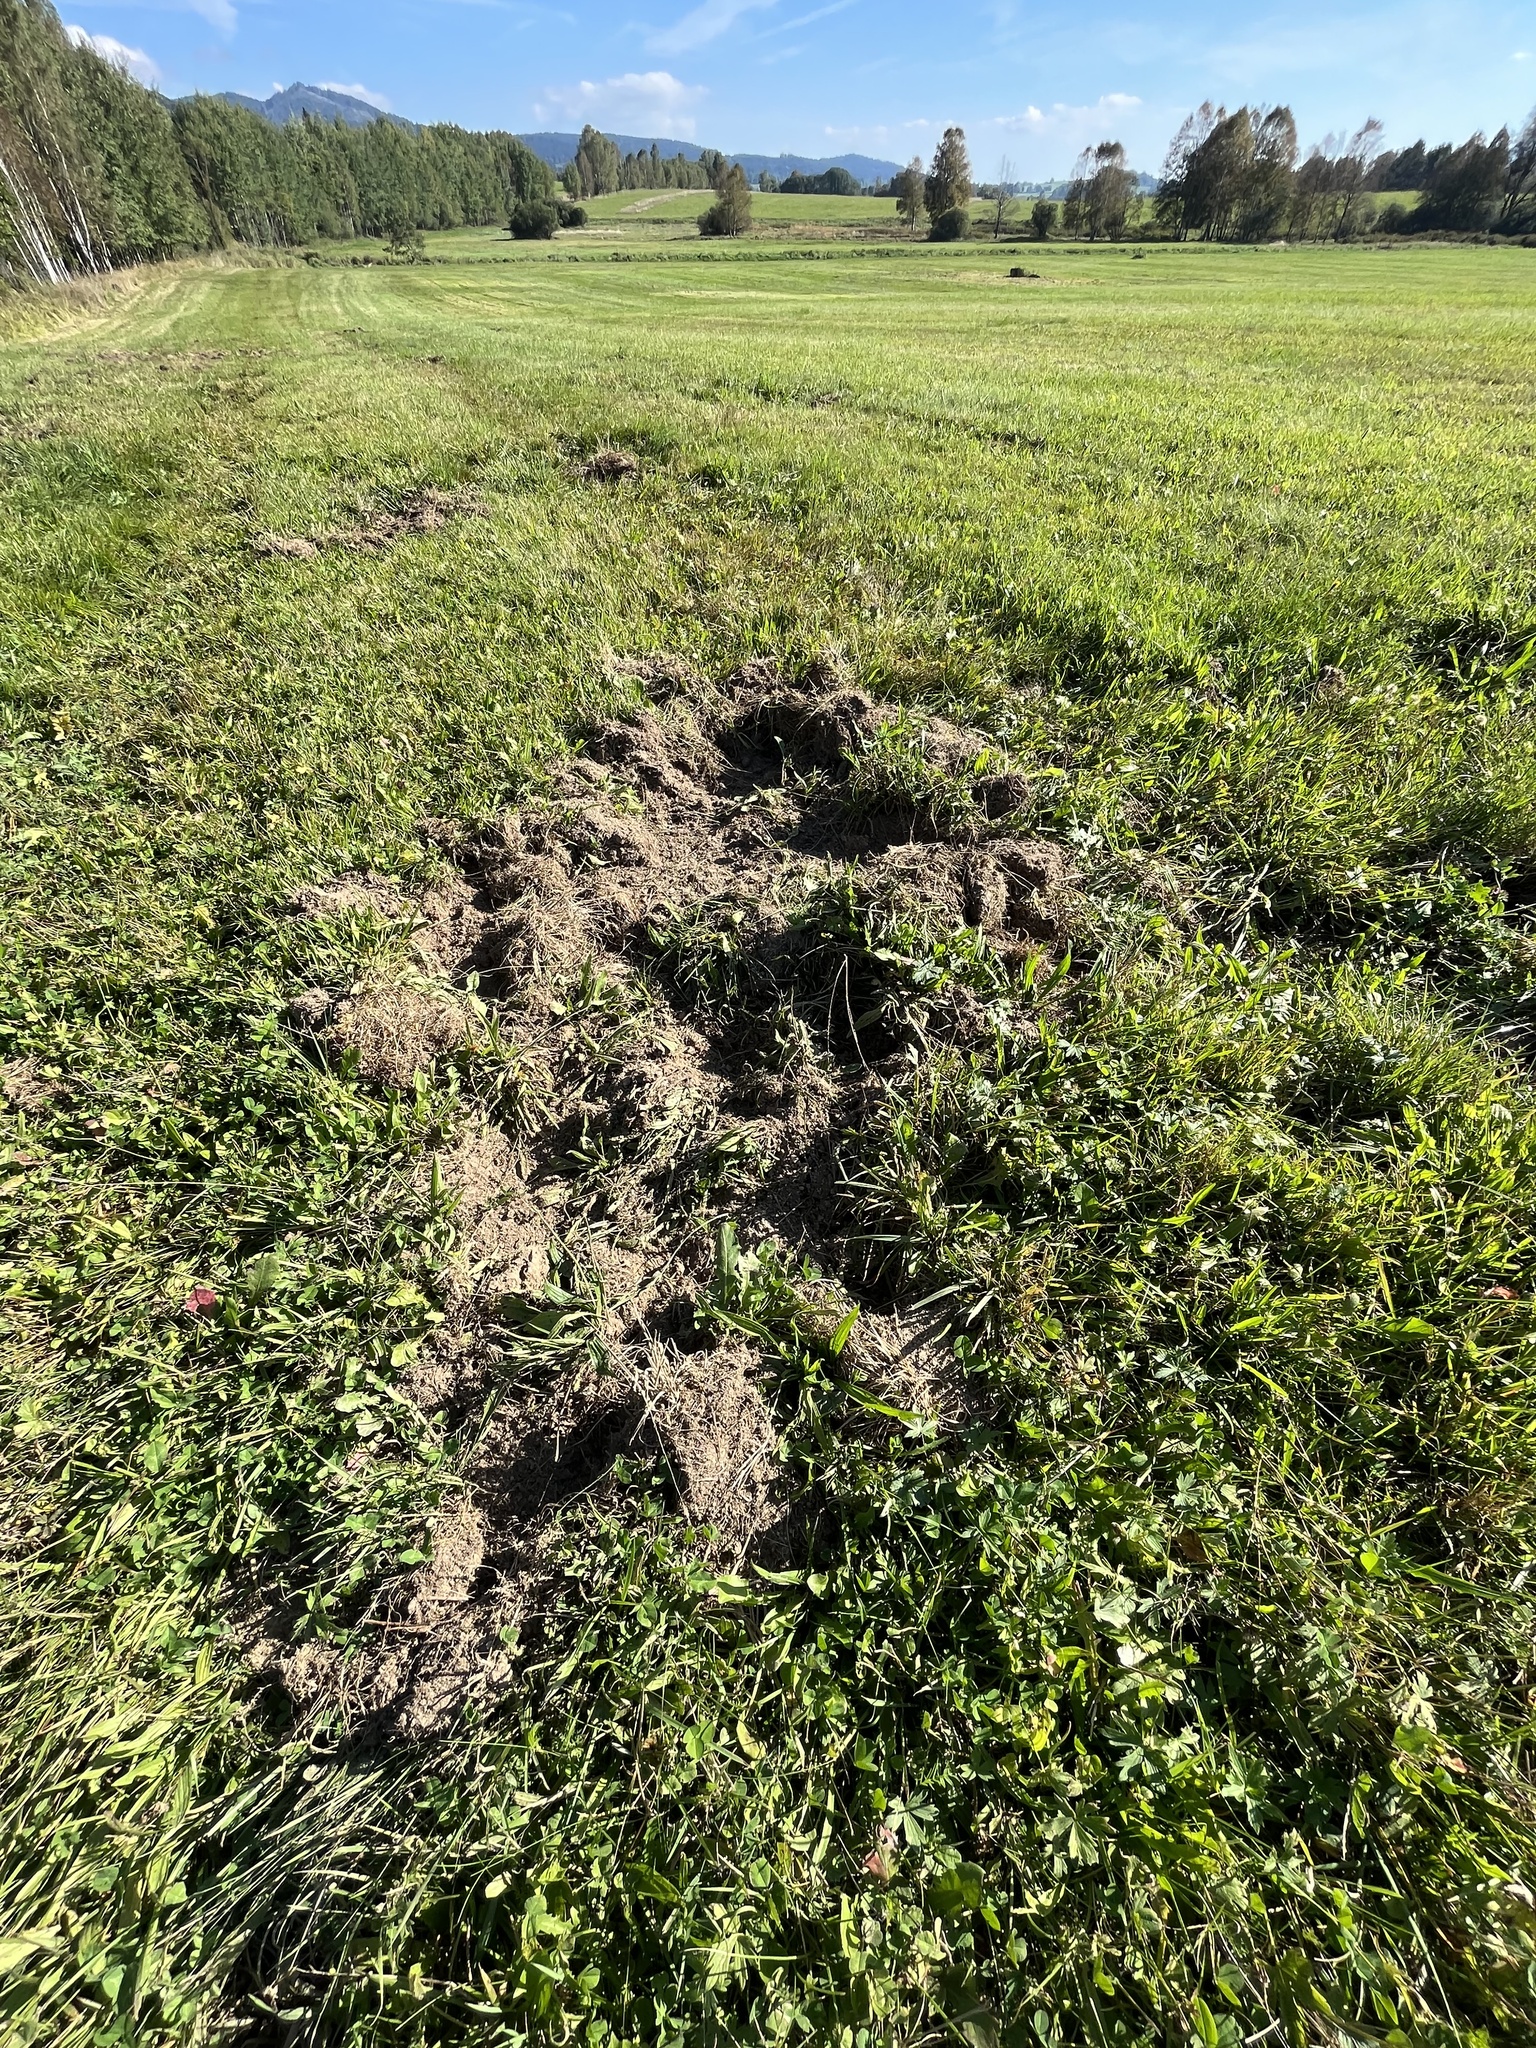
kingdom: Animalia
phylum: Chordata
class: Mammalia
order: Artiodactyla
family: Suidae
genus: Sus
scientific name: Sus scrofa
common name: Wild boar
